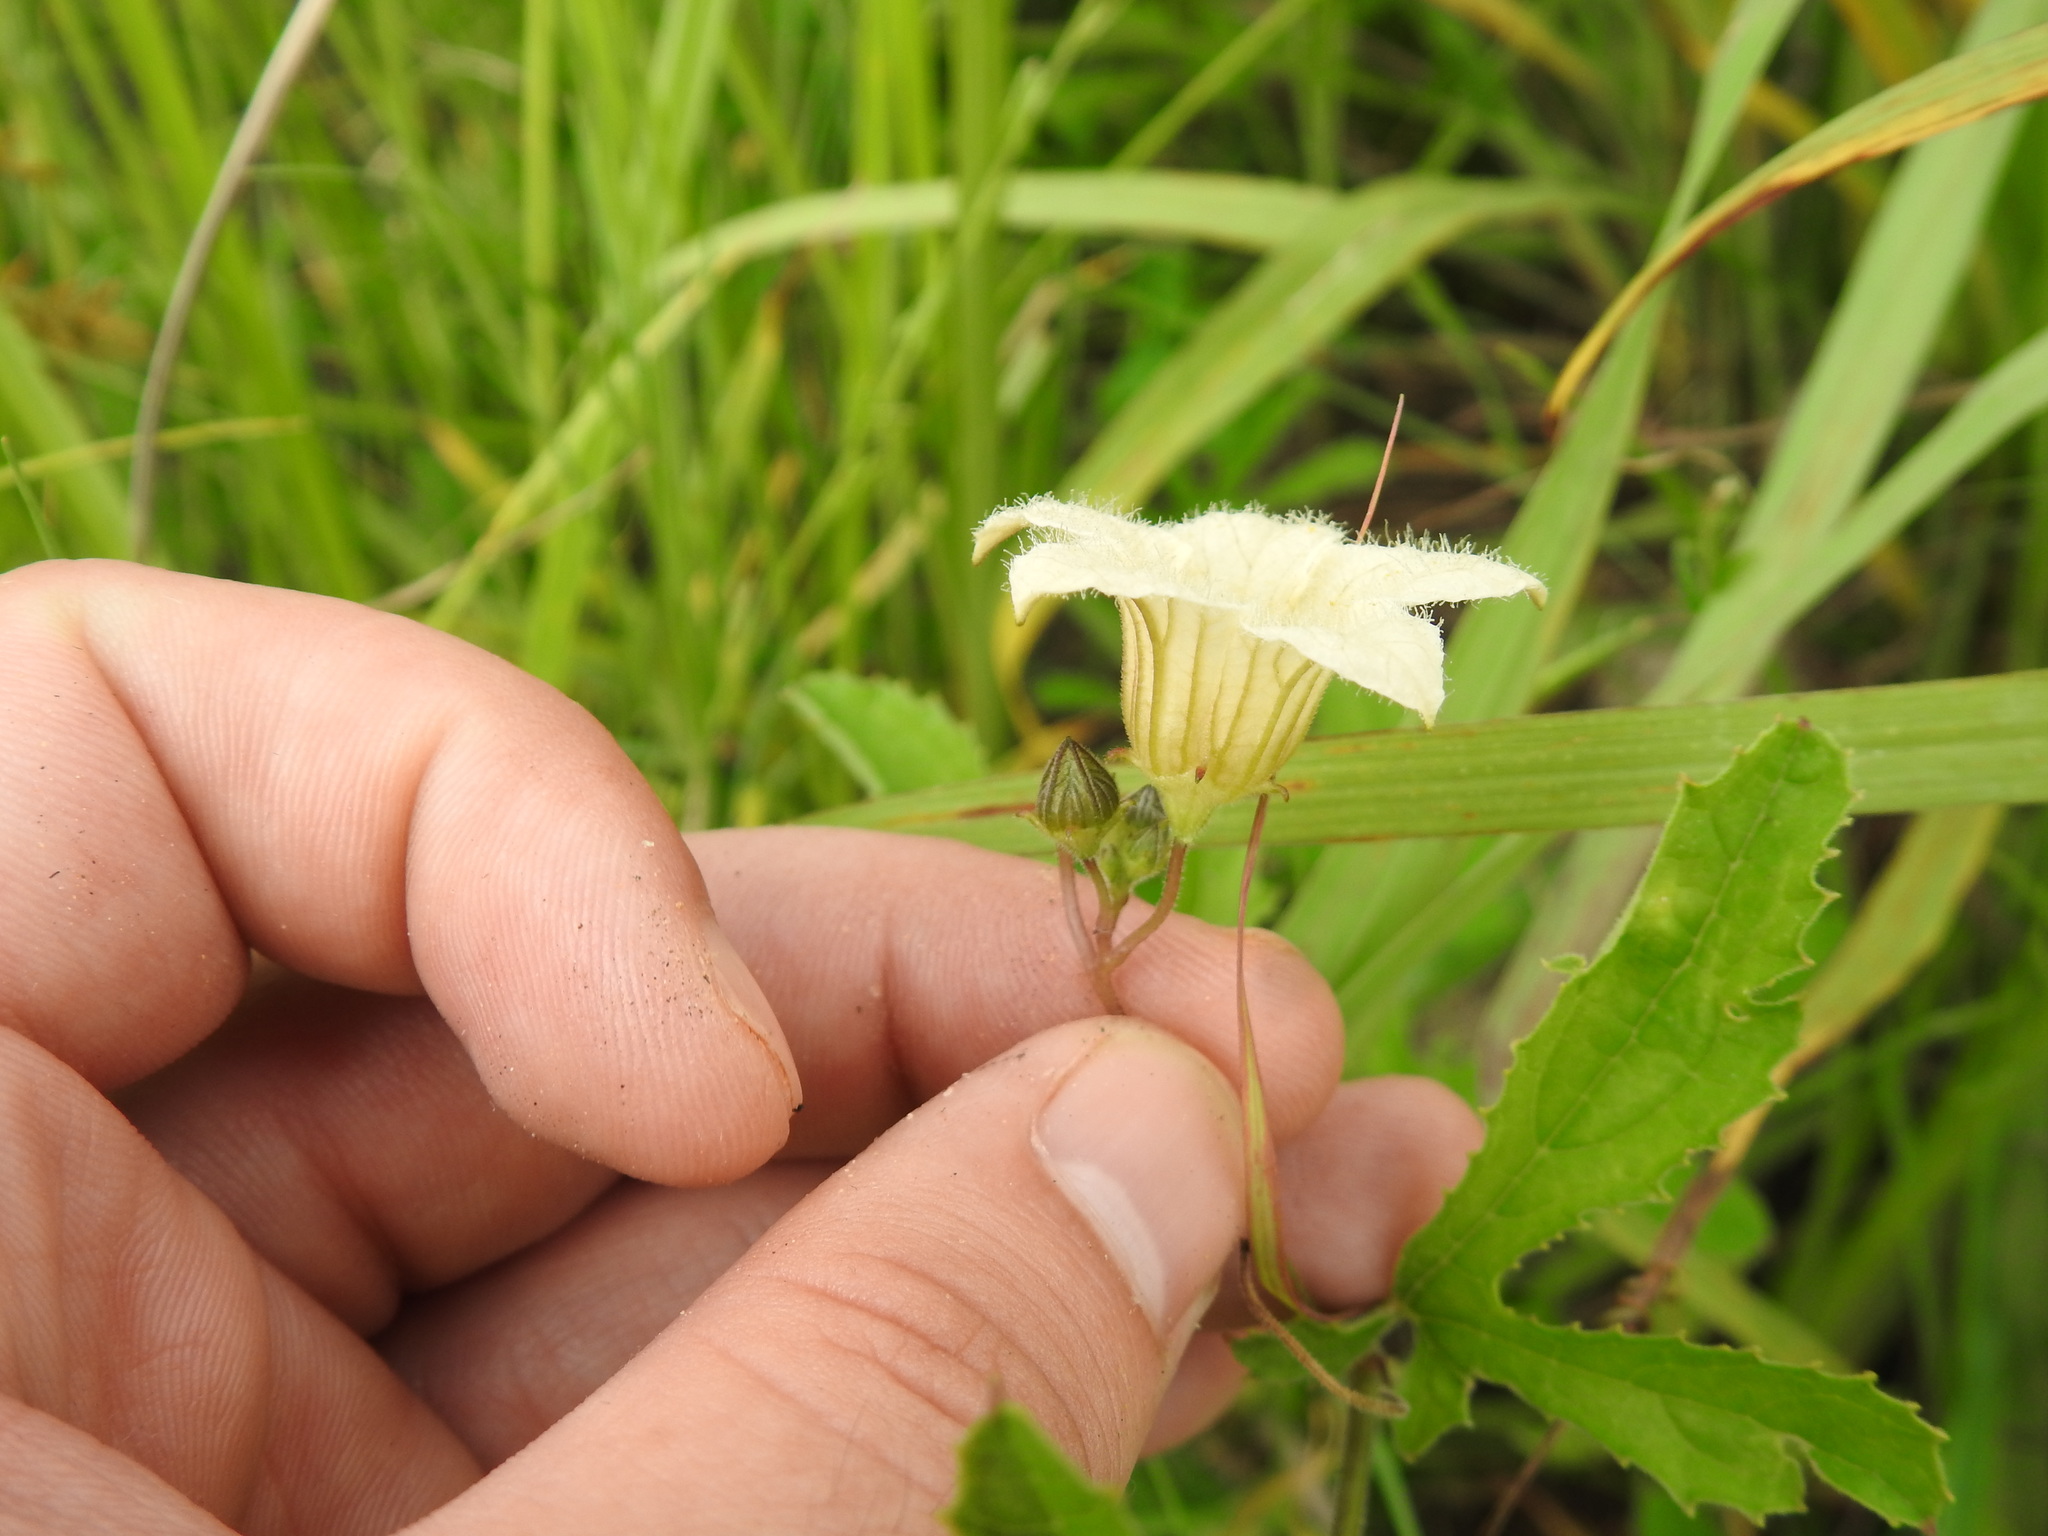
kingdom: Plantae
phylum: Tracheophyta
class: Magnoliopsida
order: Cucurbitales
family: Cucurbitaceae
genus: Coccinia
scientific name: Coccinia adoensis
